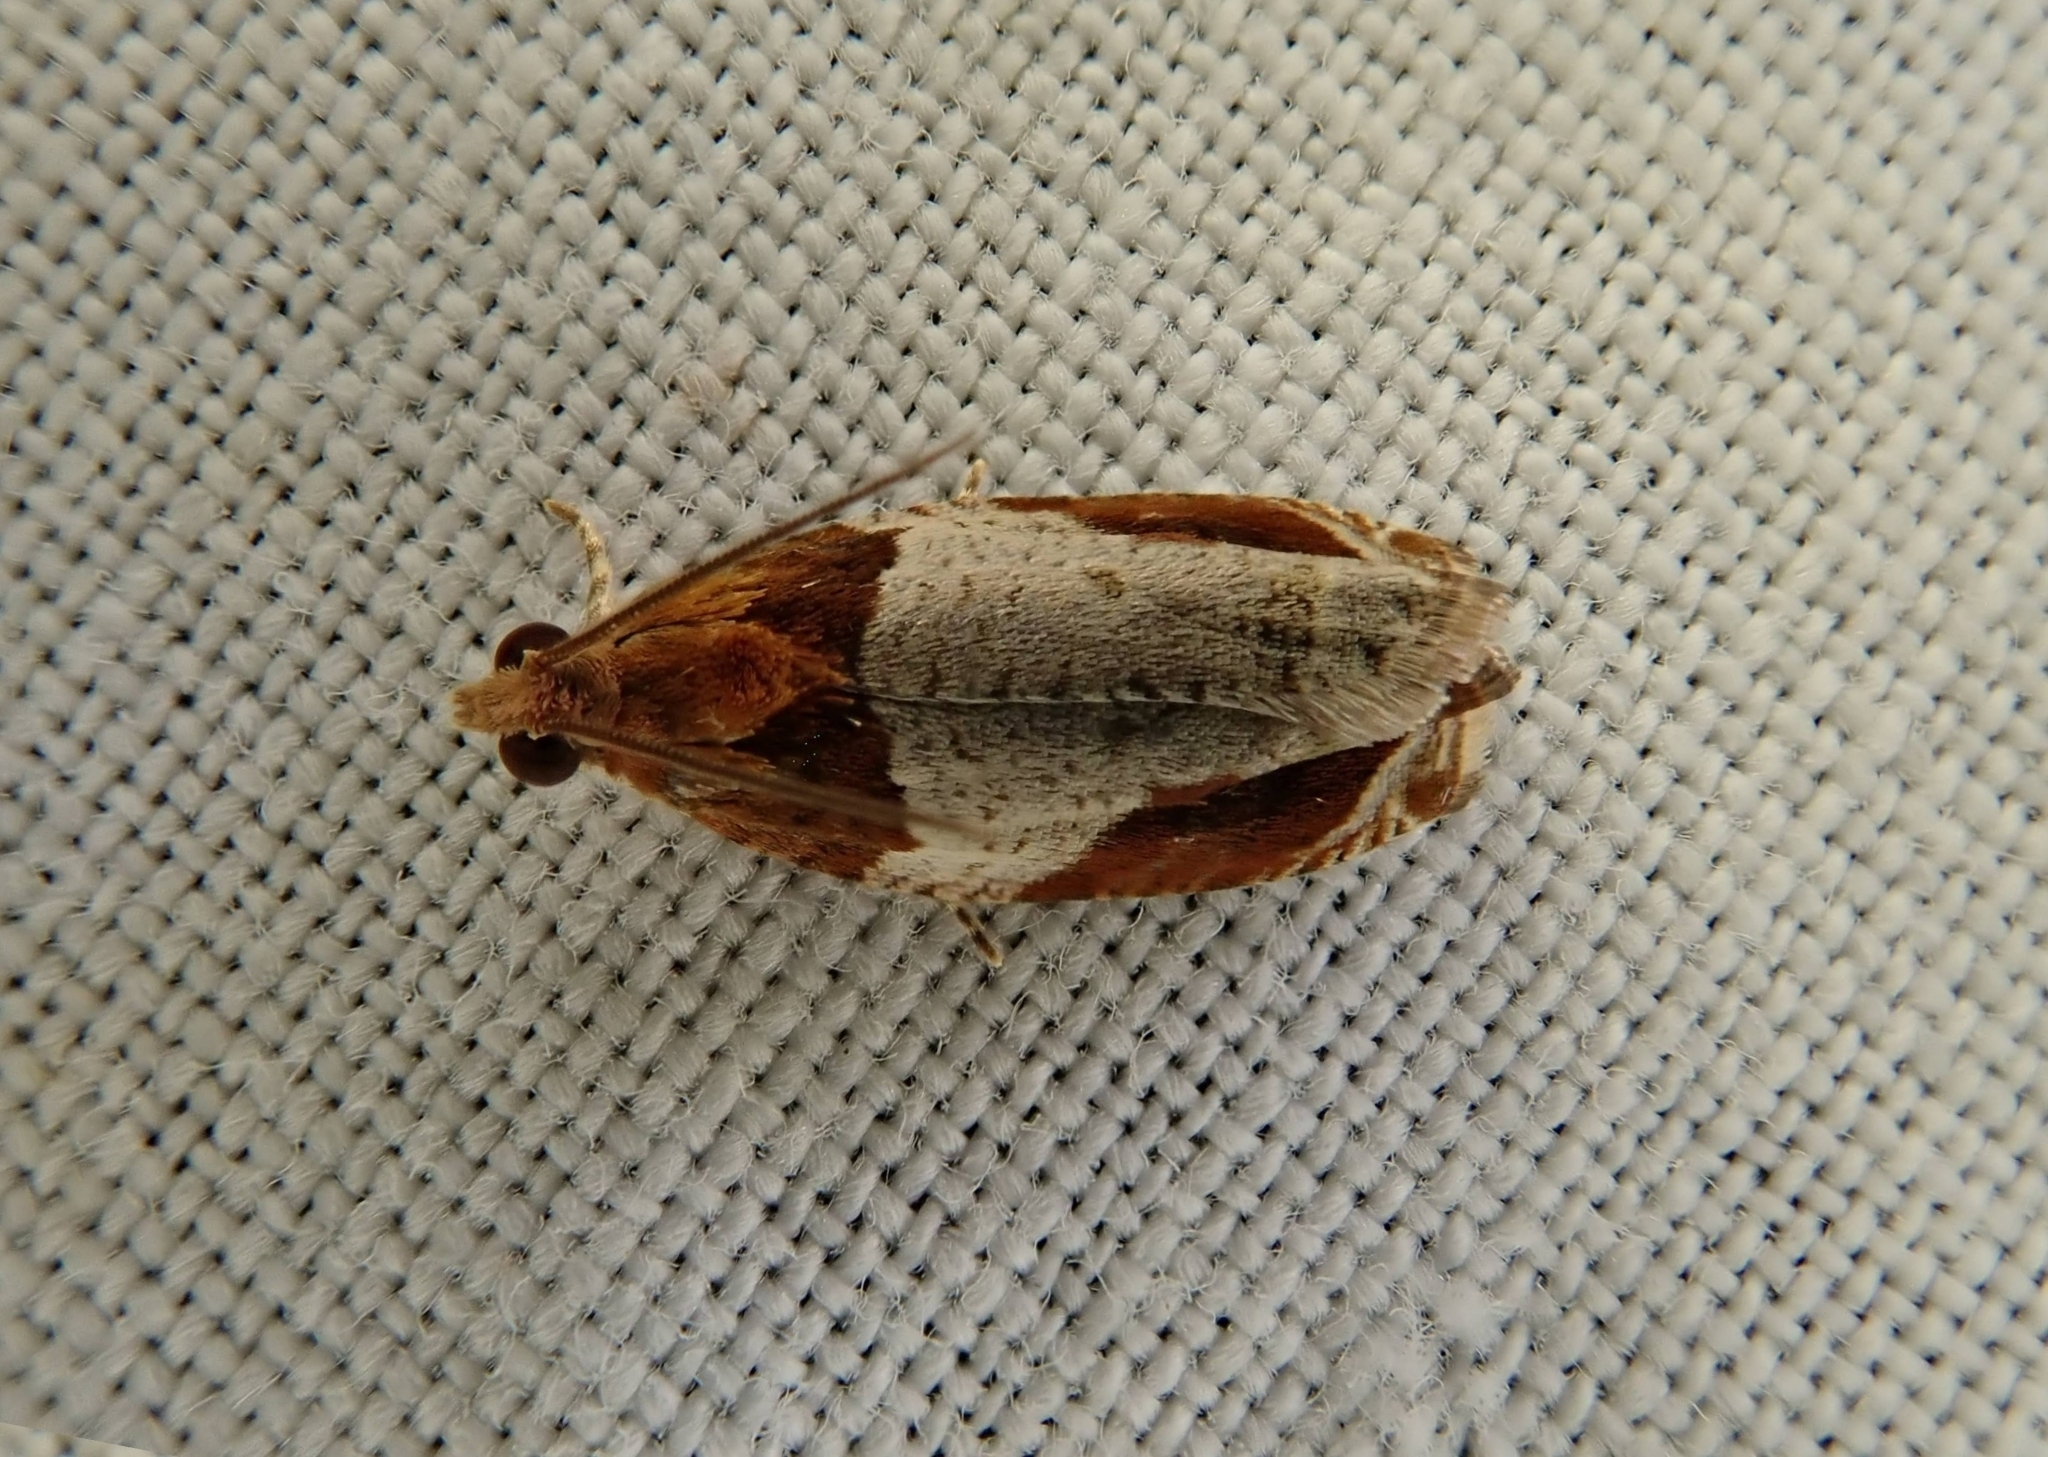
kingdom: Animalia
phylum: Arthropoda
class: Insecta
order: Lepidoptera
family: Tortricidae
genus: Olethreutes
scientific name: Olethreutes ferriferana
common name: Hydrangea leaftier moth
